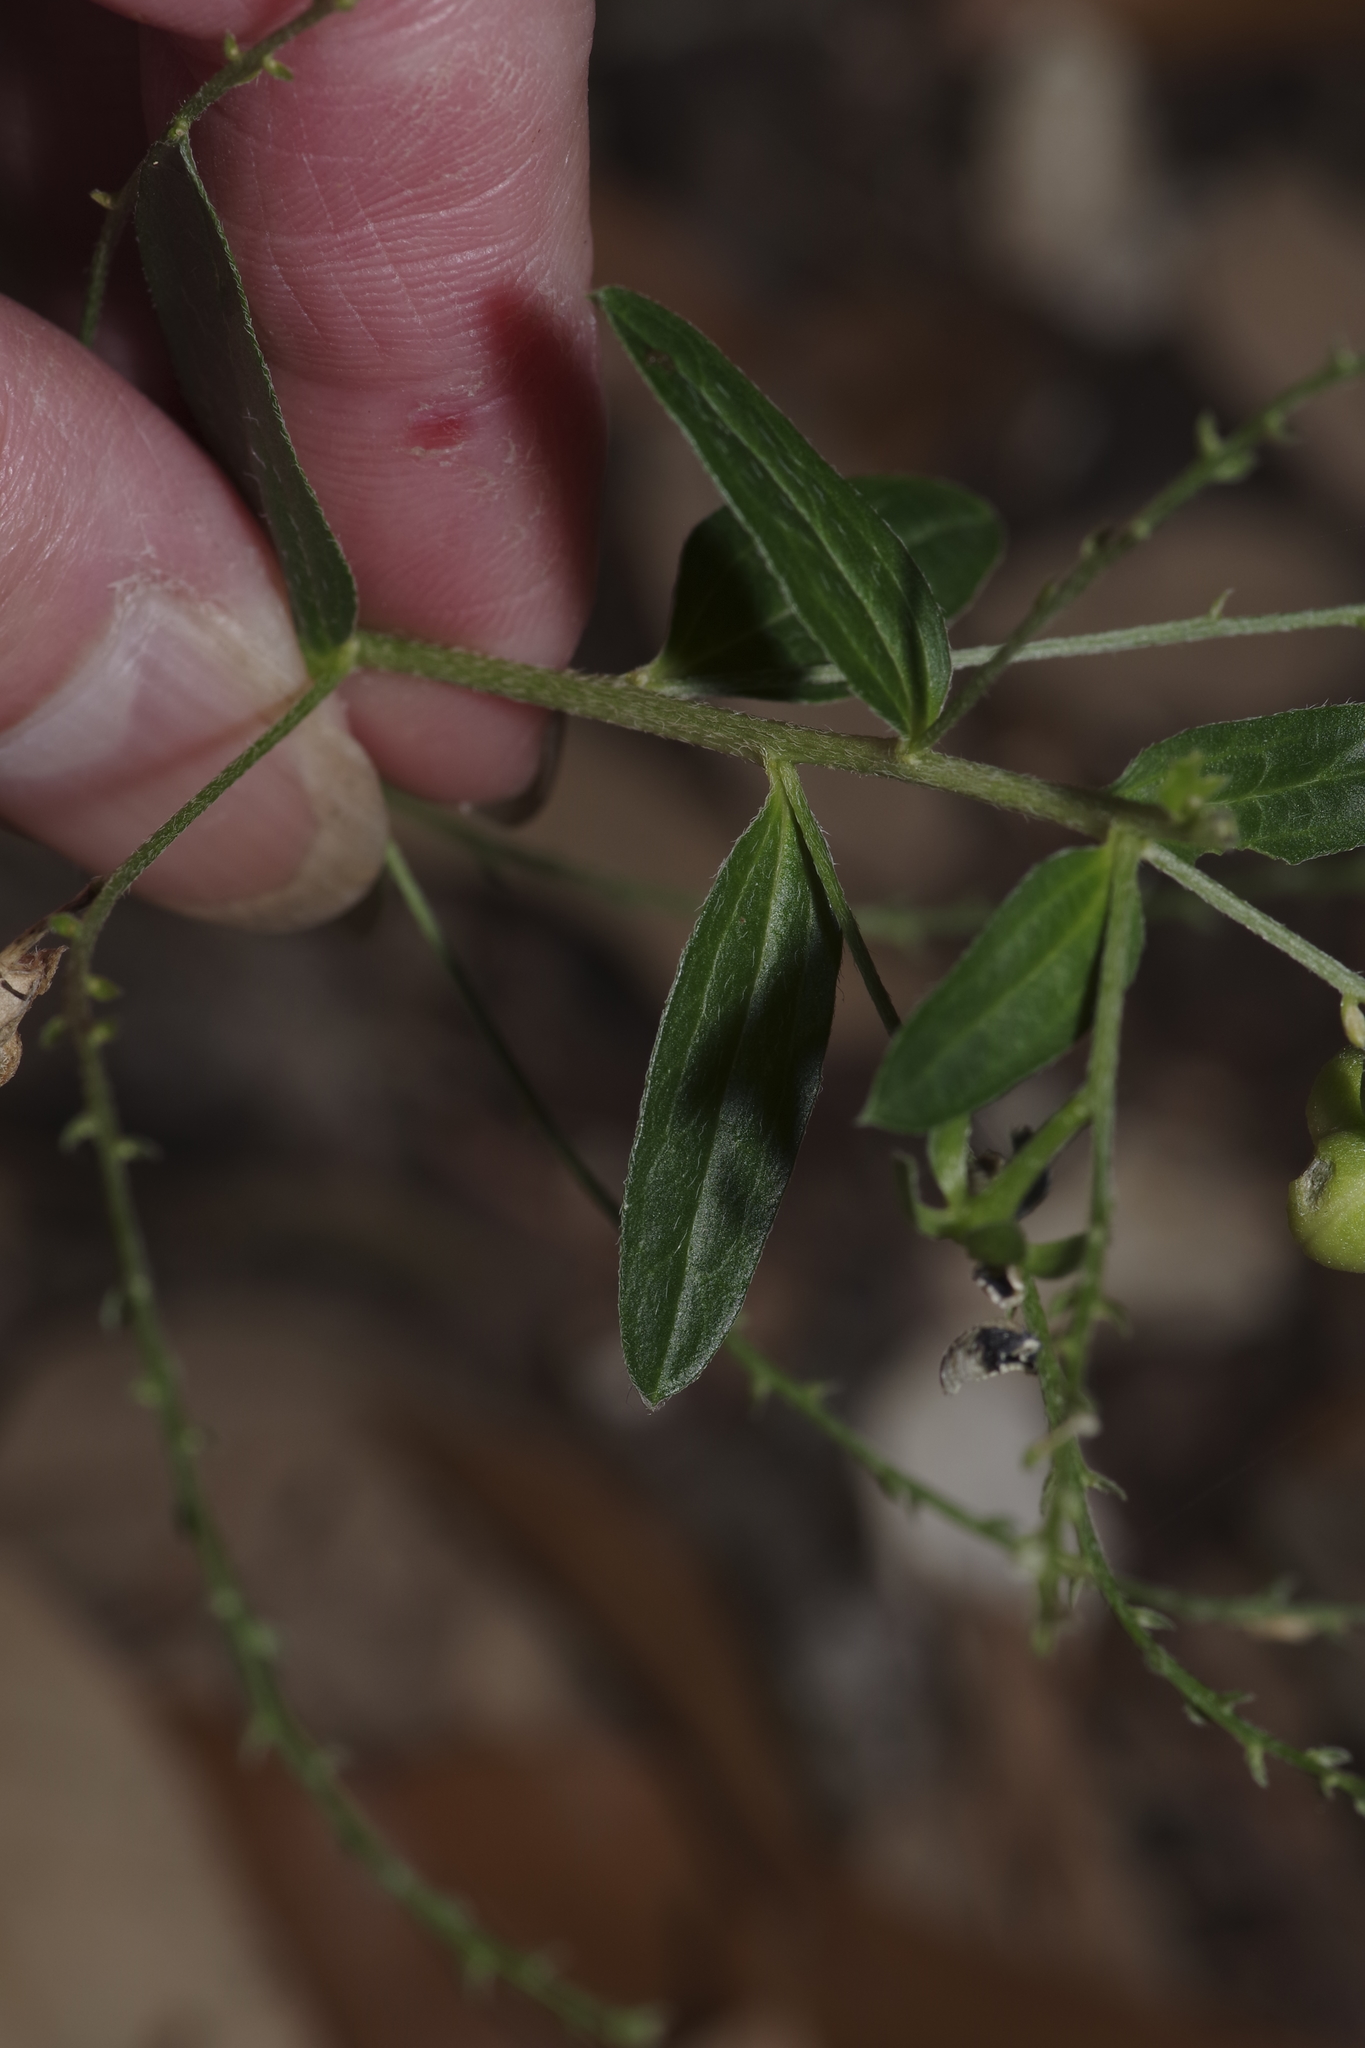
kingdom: Plantae
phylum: Tracheophyta
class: Magnoliopsida
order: Malpighiales
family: Euphorbiaceae
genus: Ditaxis
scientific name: Ditaxis mercurialina
